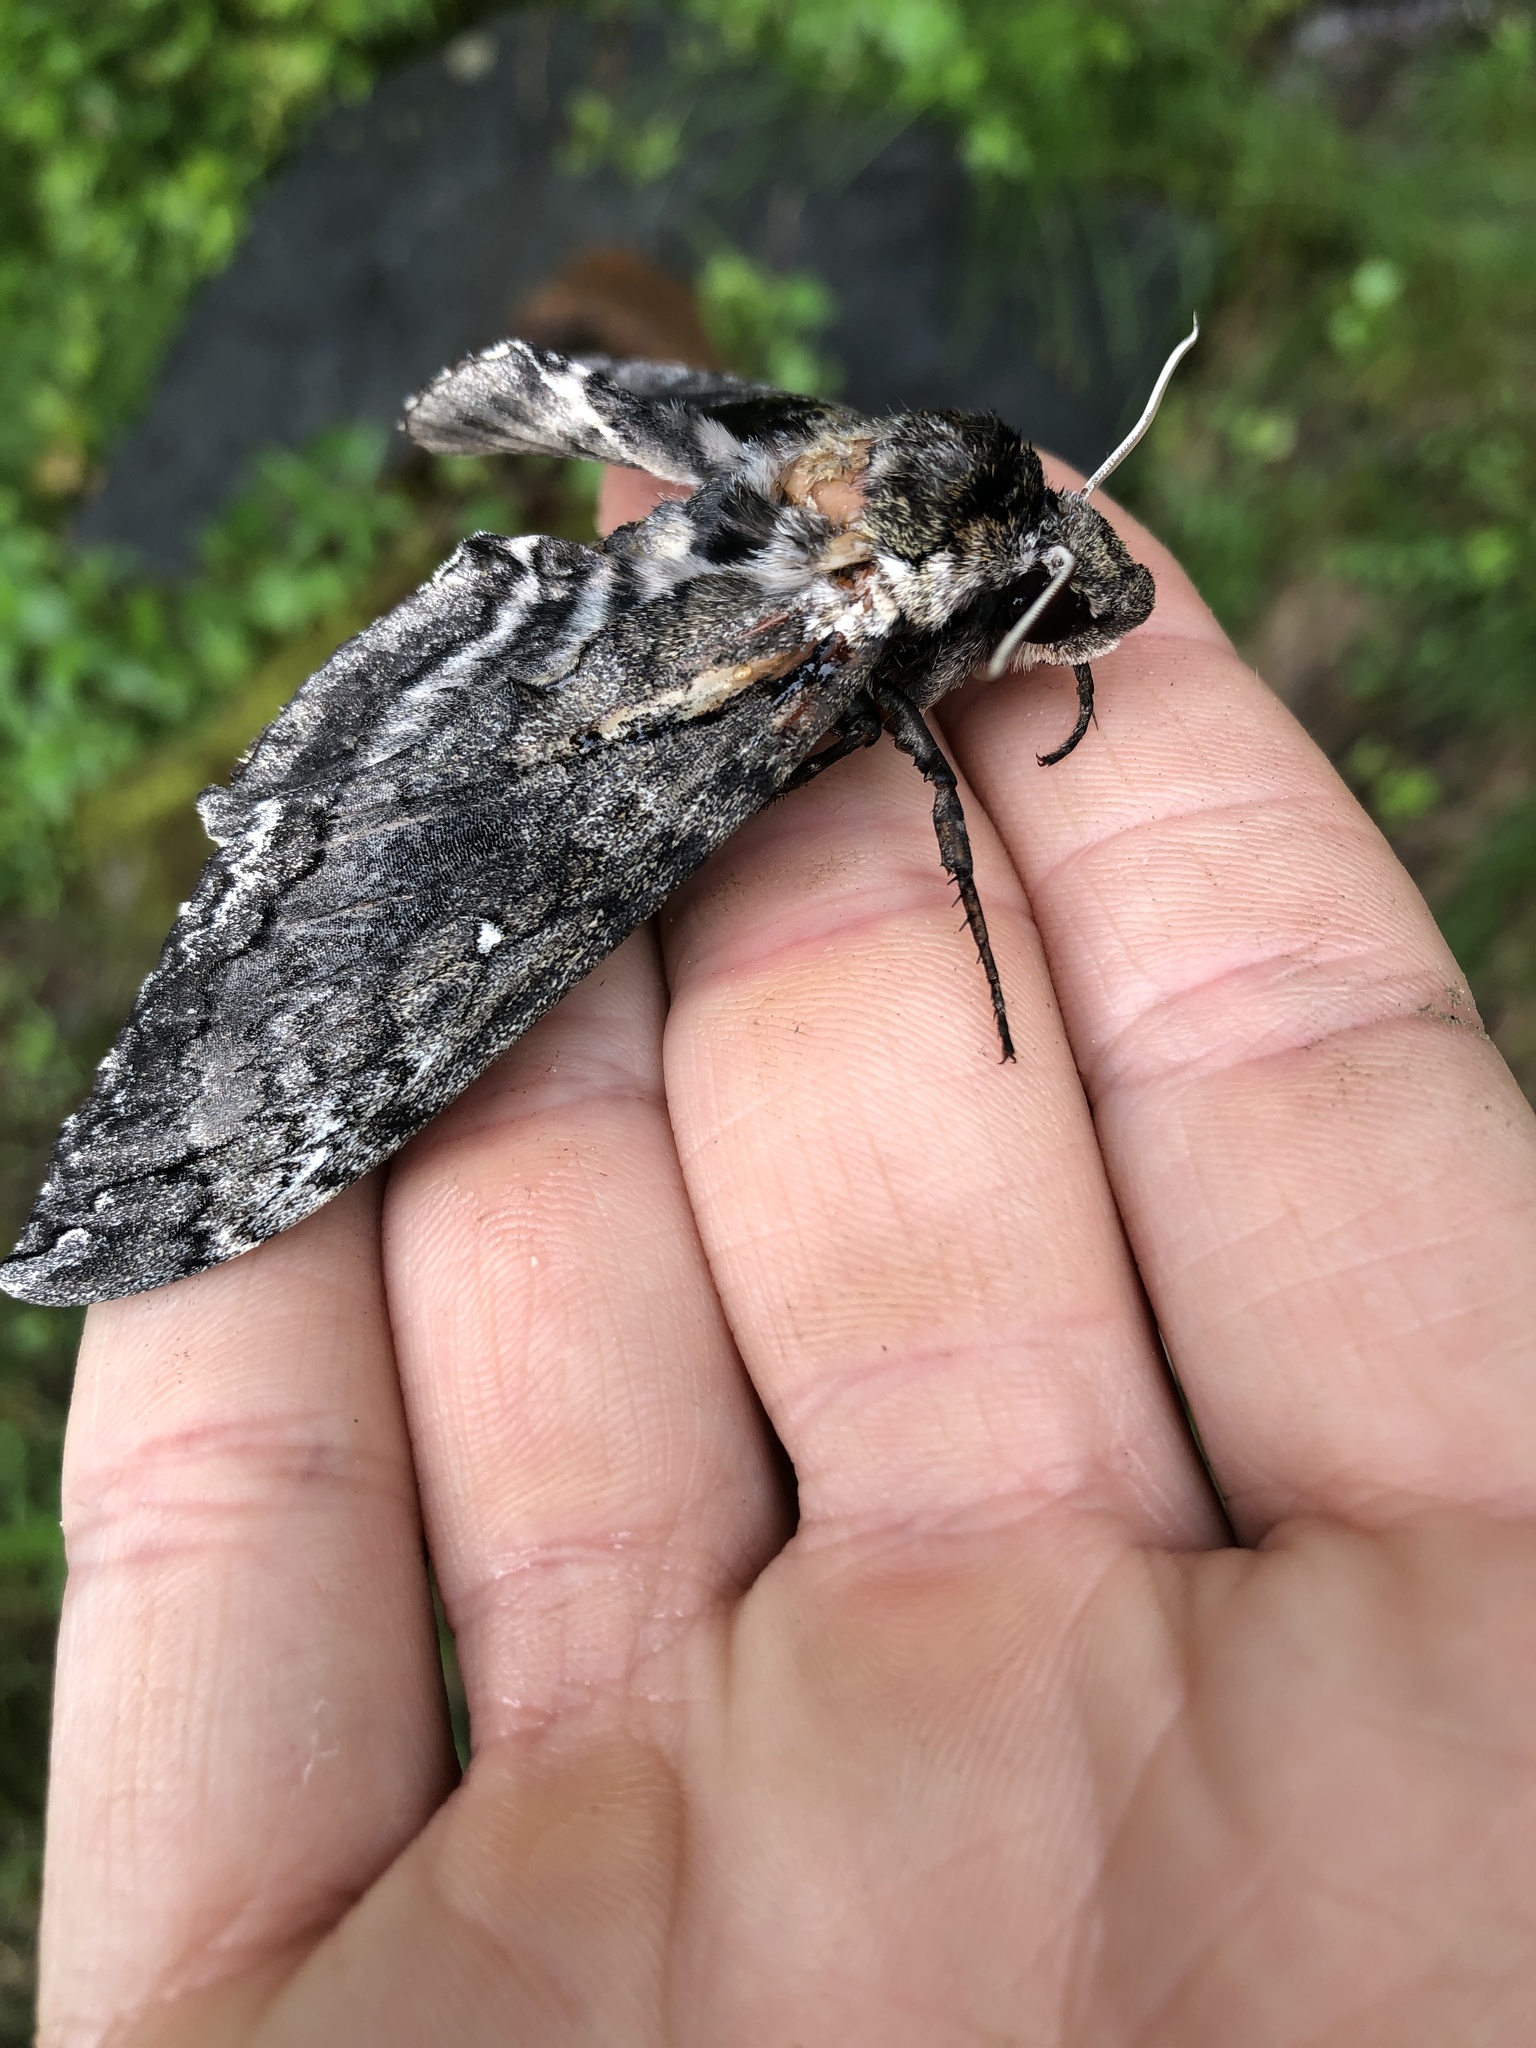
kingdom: Animalia
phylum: Arthropoda
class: Insecta
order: Lepidoptera
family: Sphingidae
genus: Manduca
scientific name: Manduca sexta
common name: Carolina sphinx
